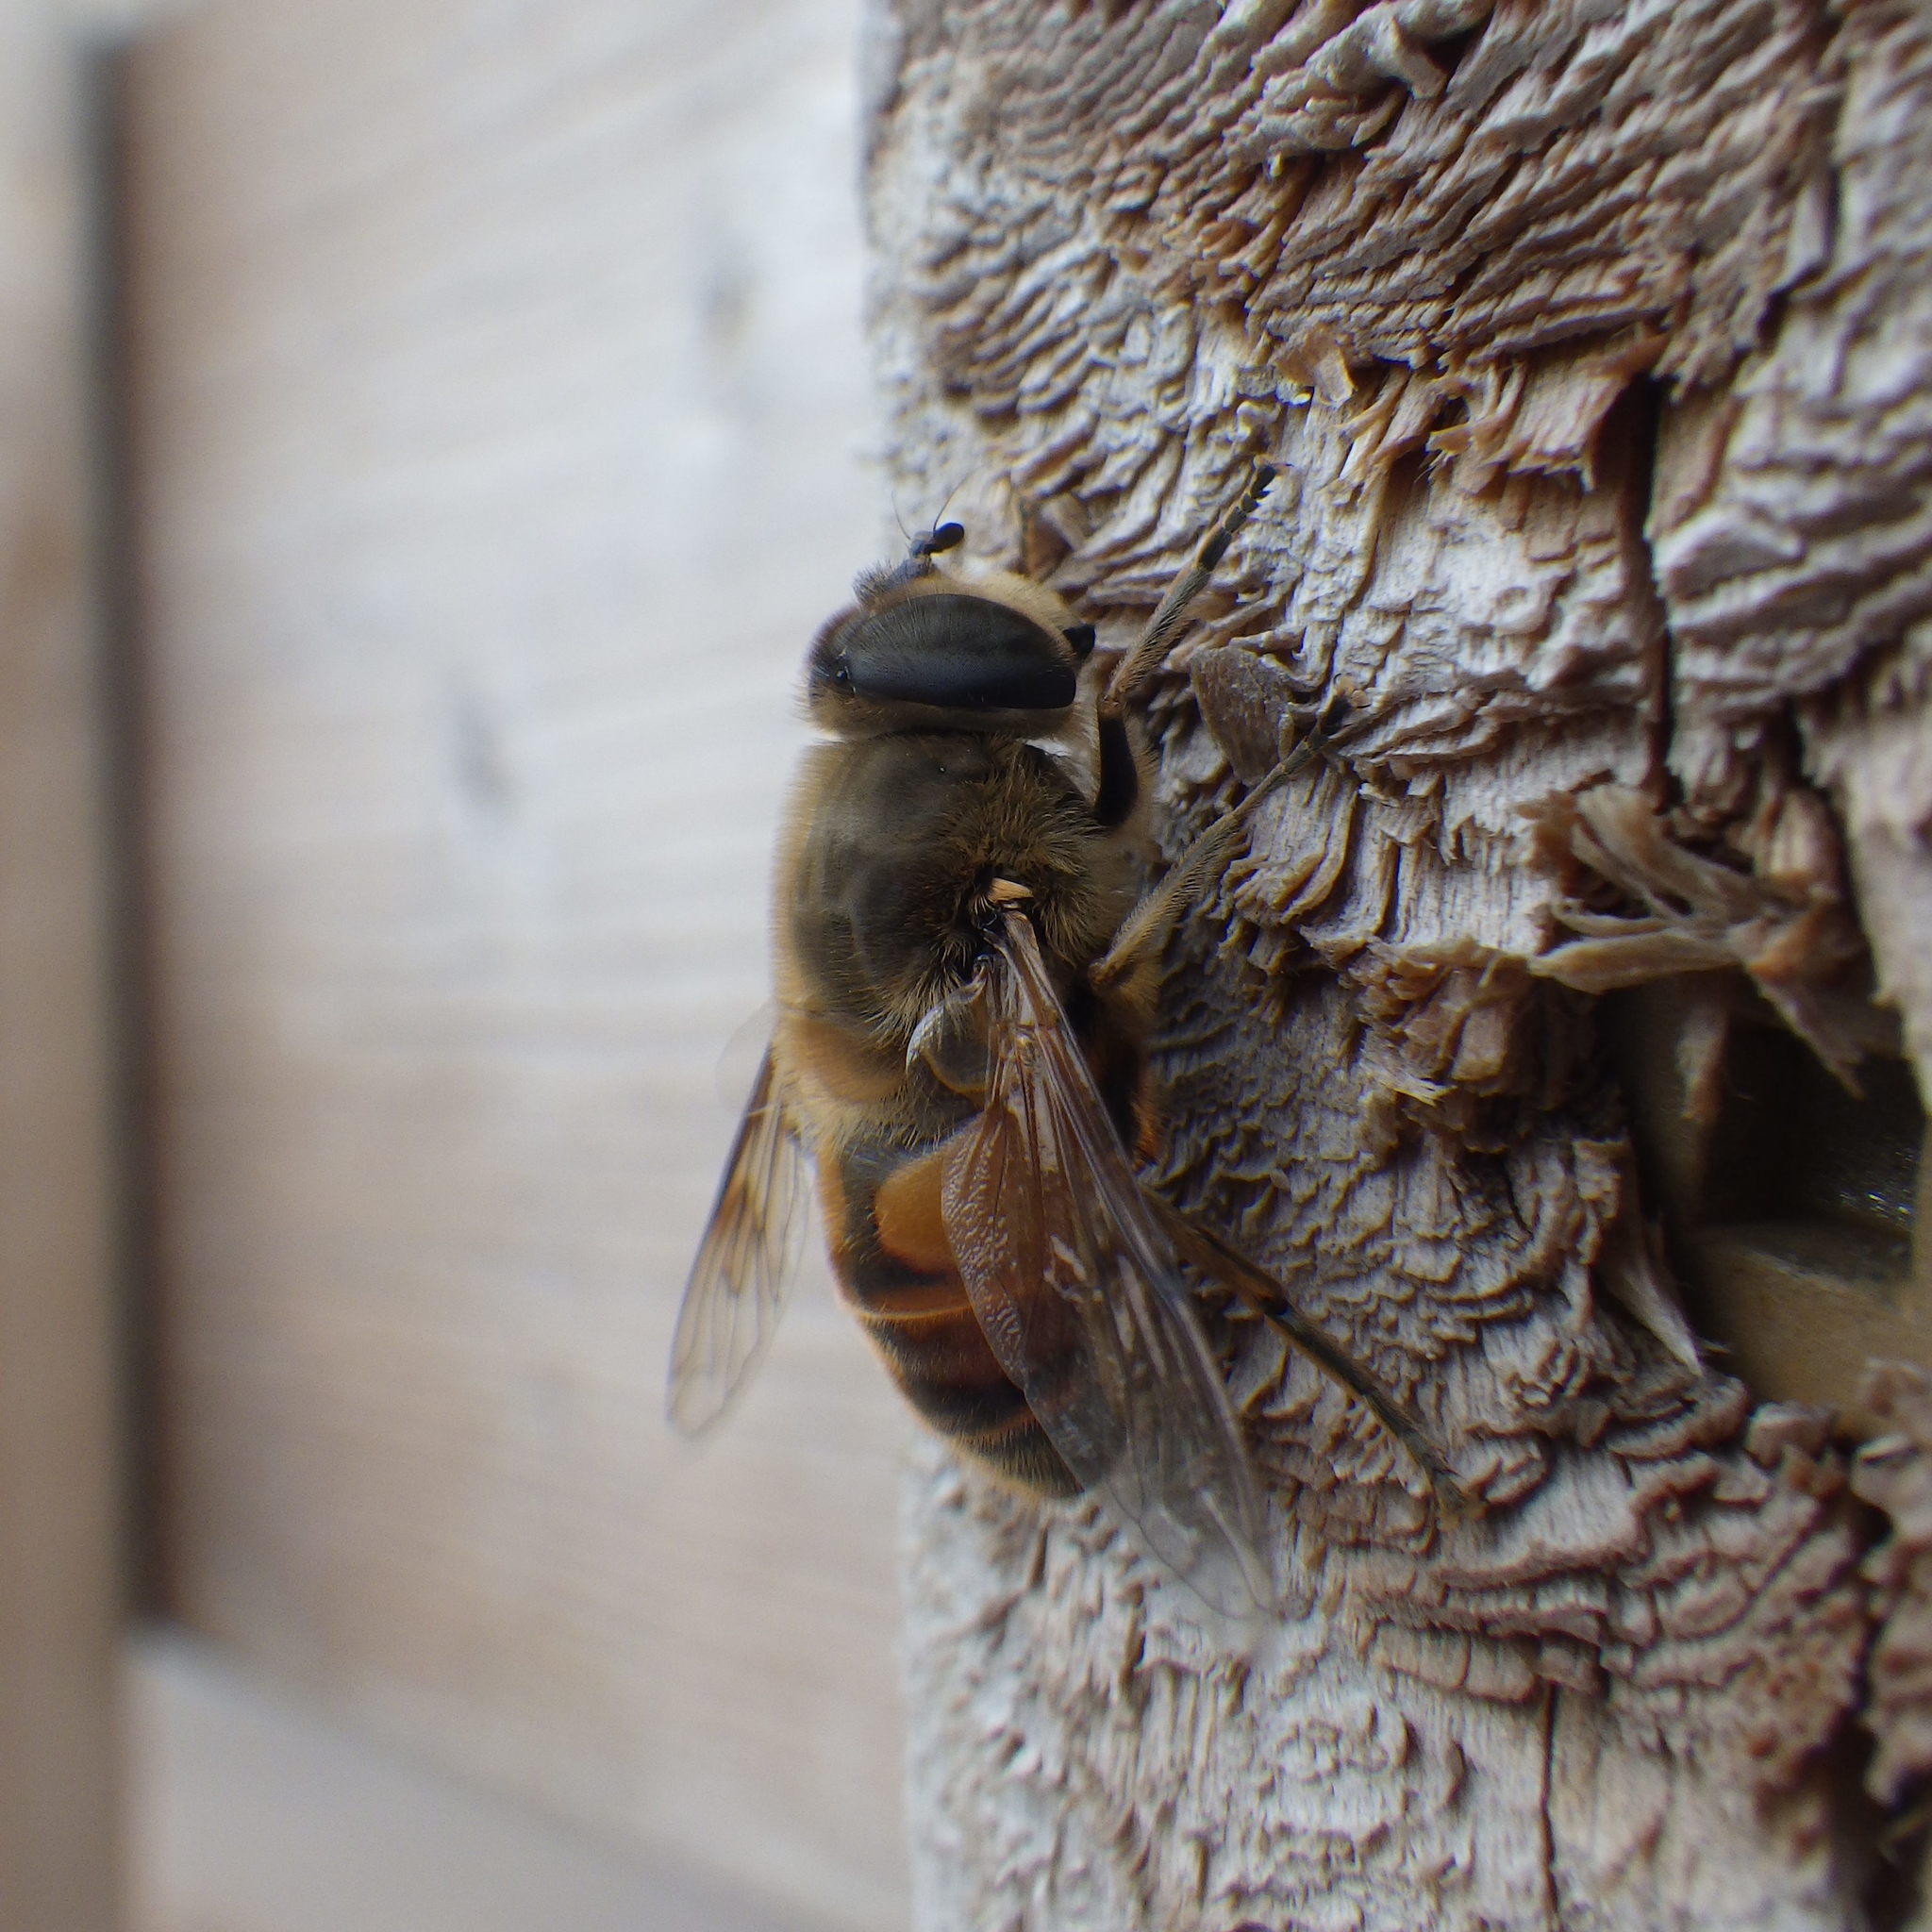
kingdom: Animalia
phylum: Arthropoda
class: Insecta
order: Diptera
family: Syrphidae
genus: Eristalis
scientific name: Eristalis tenax
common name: Drone fly
